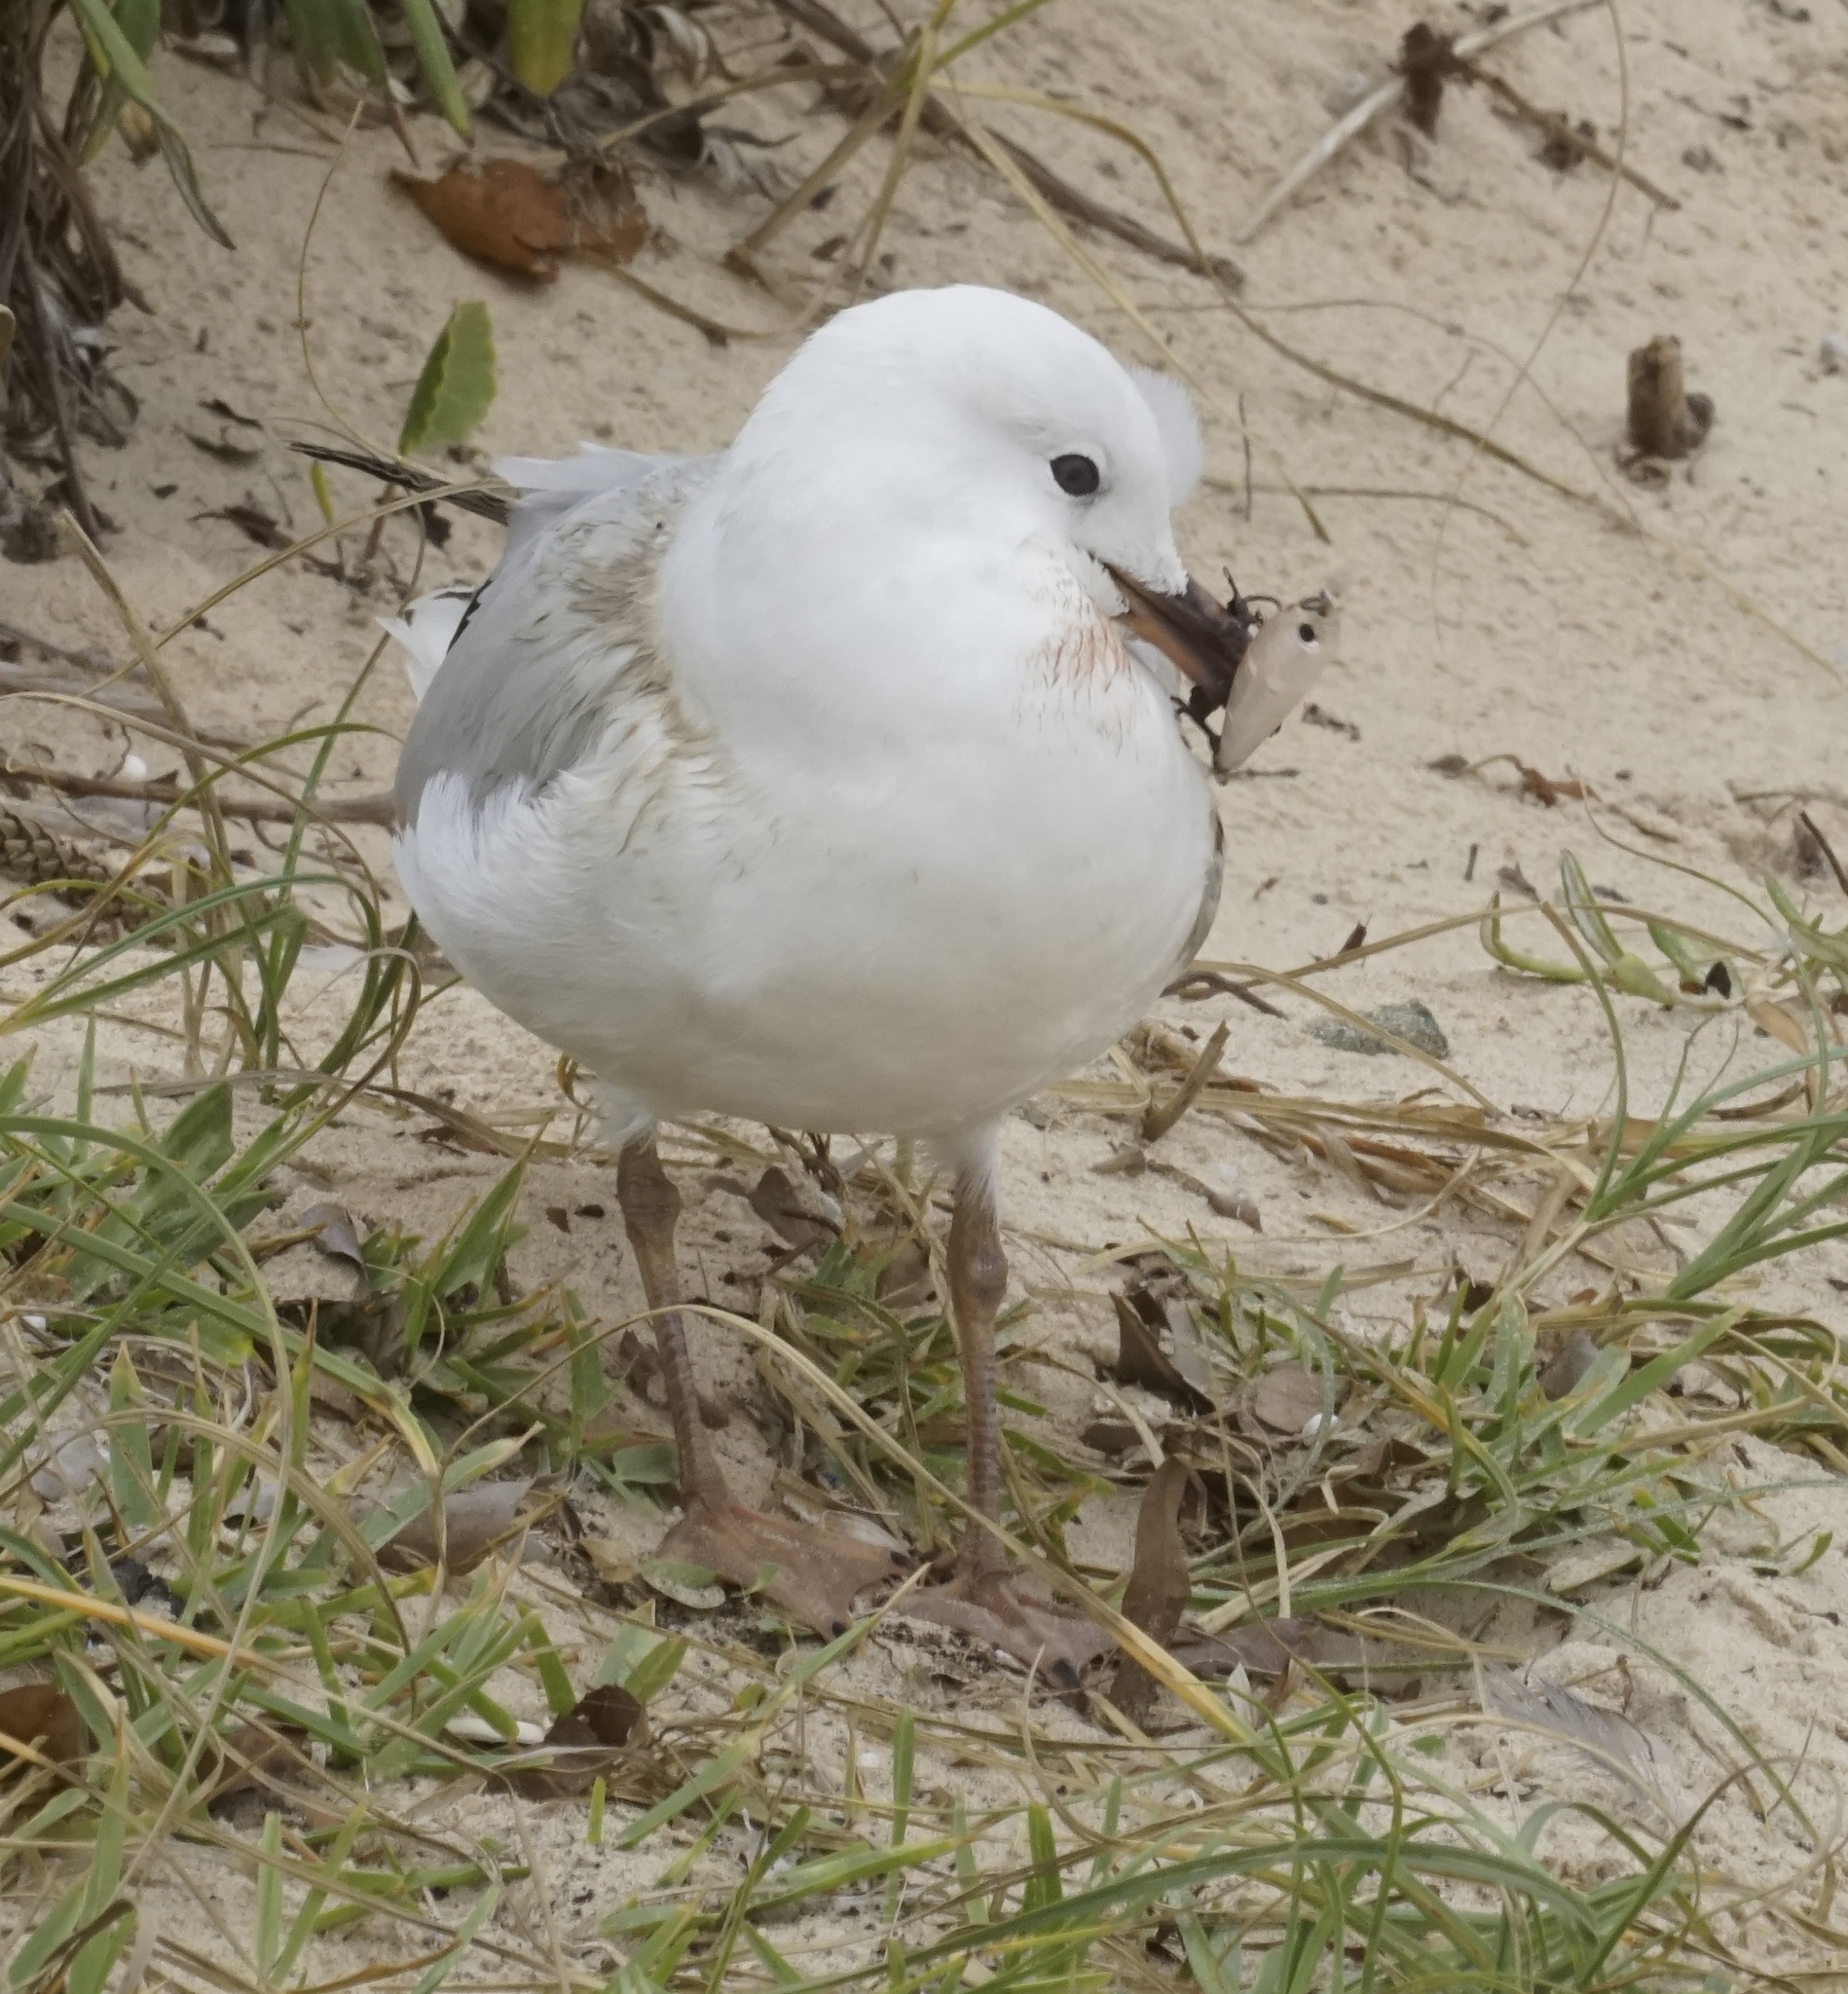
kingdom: Animalia
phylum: Chordata
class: Aves
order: Charadriiformes
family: Laridae
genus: Chroicocephalus
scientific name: Chroicocephalus novaehollandiae
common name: Silver gull
